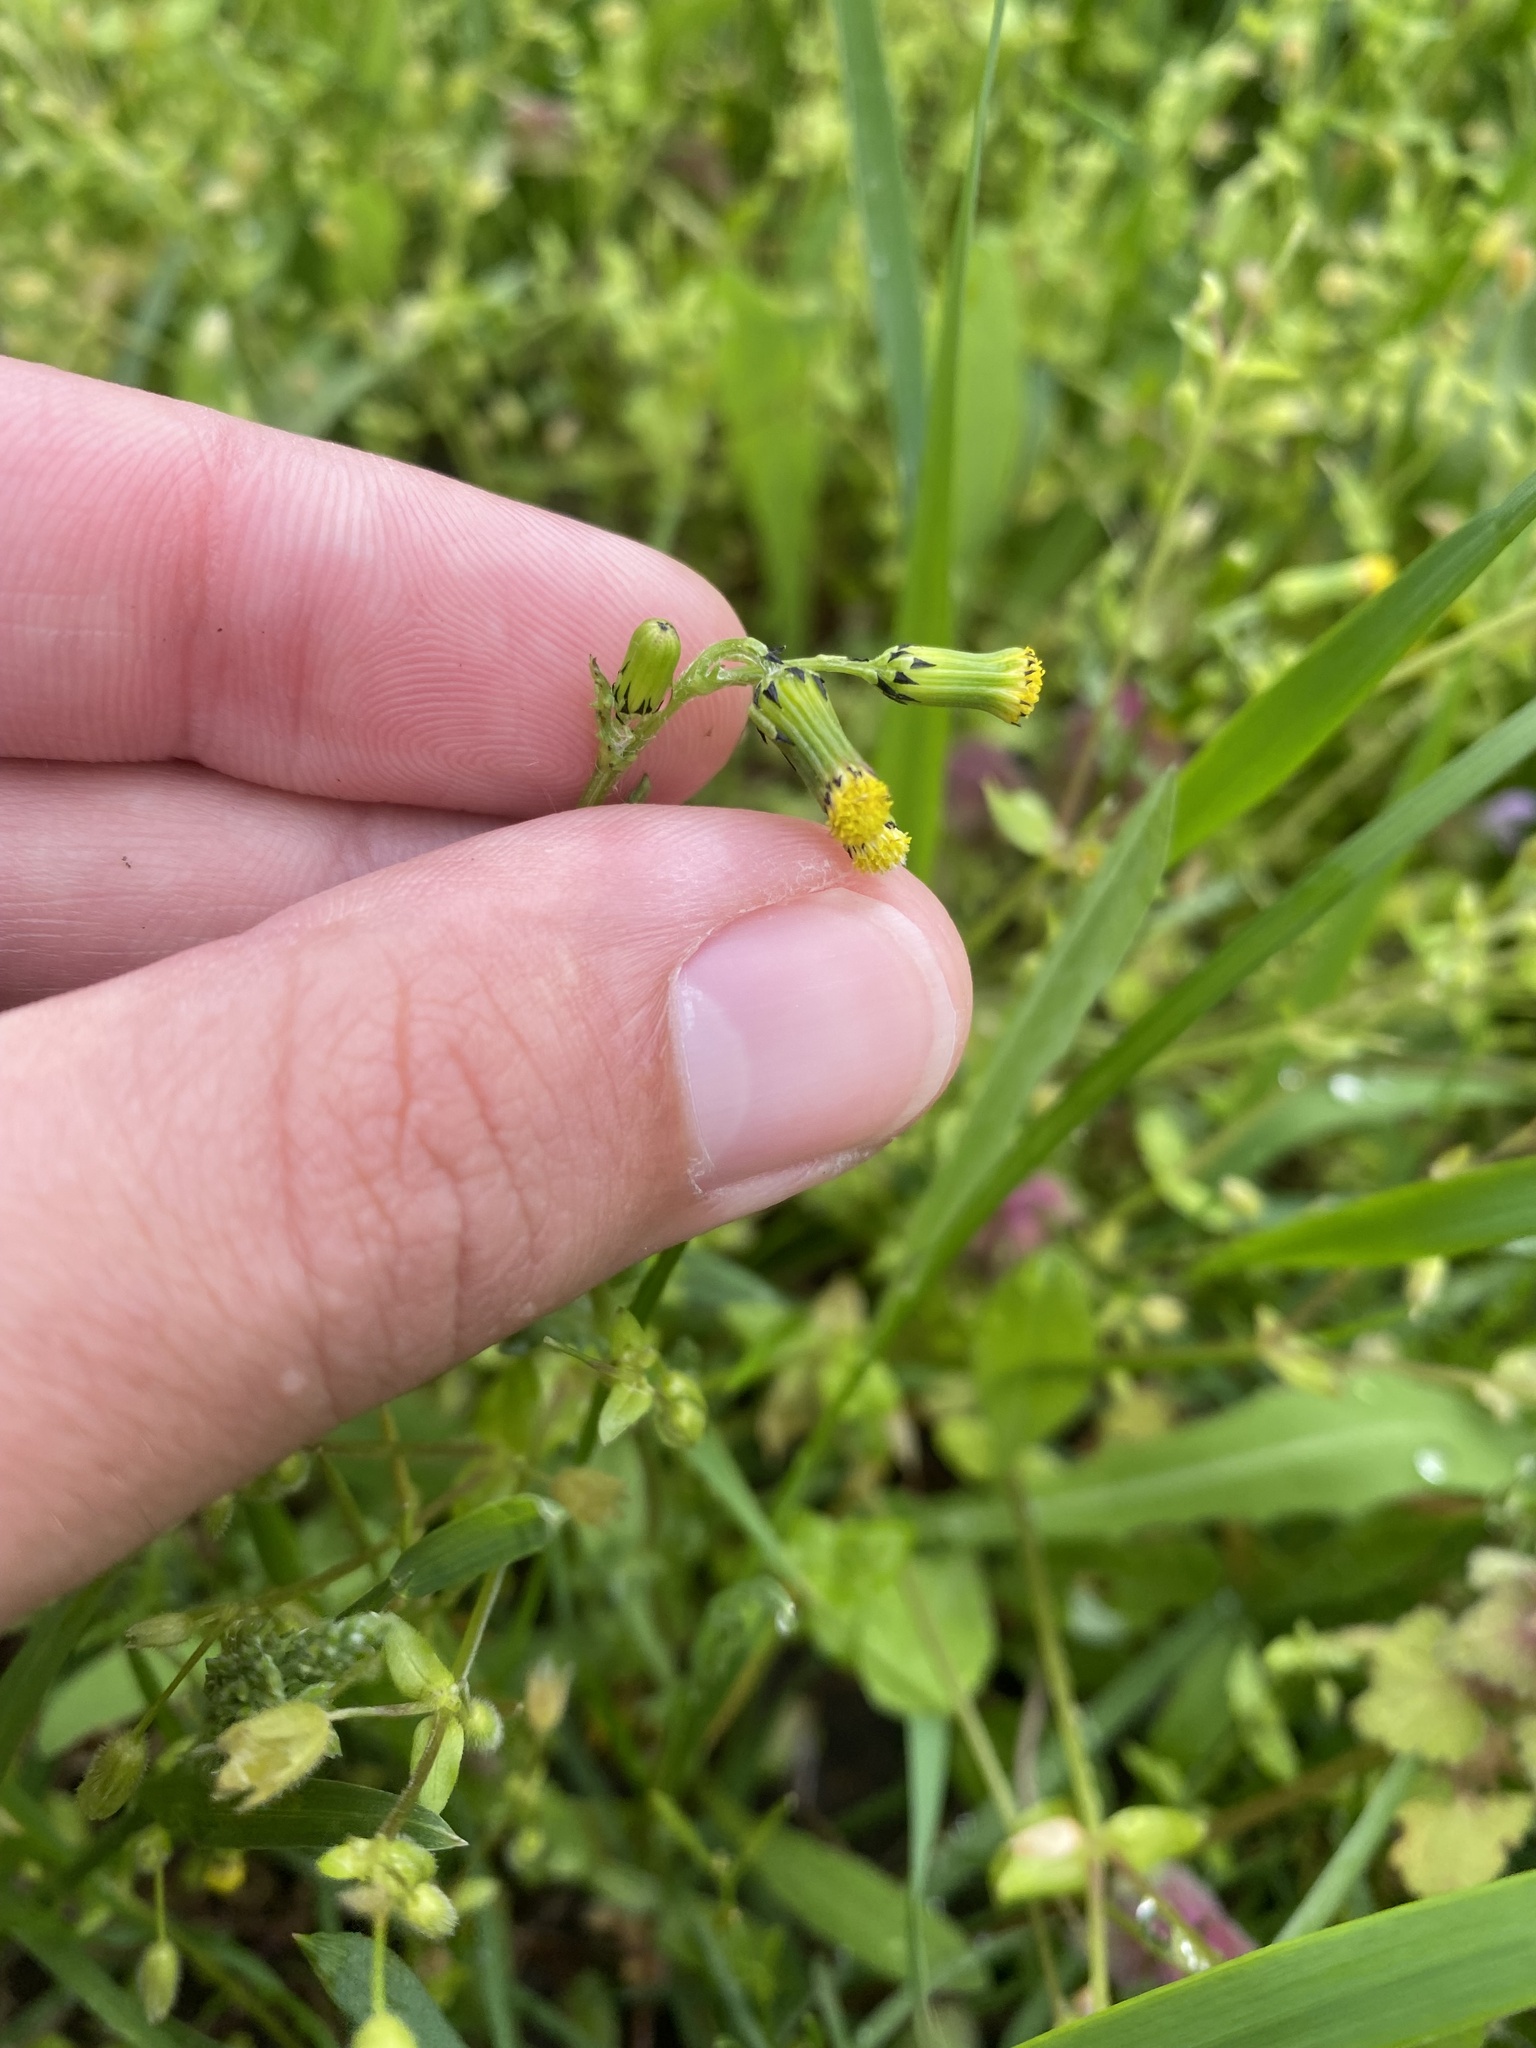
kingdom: Plantae
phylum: Tracheophyta
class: Magnoliopsida
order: Asterales
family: Asteraceae
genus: Senecio
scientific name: Senecio vulgaris
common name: Old-man-in-the-spring
